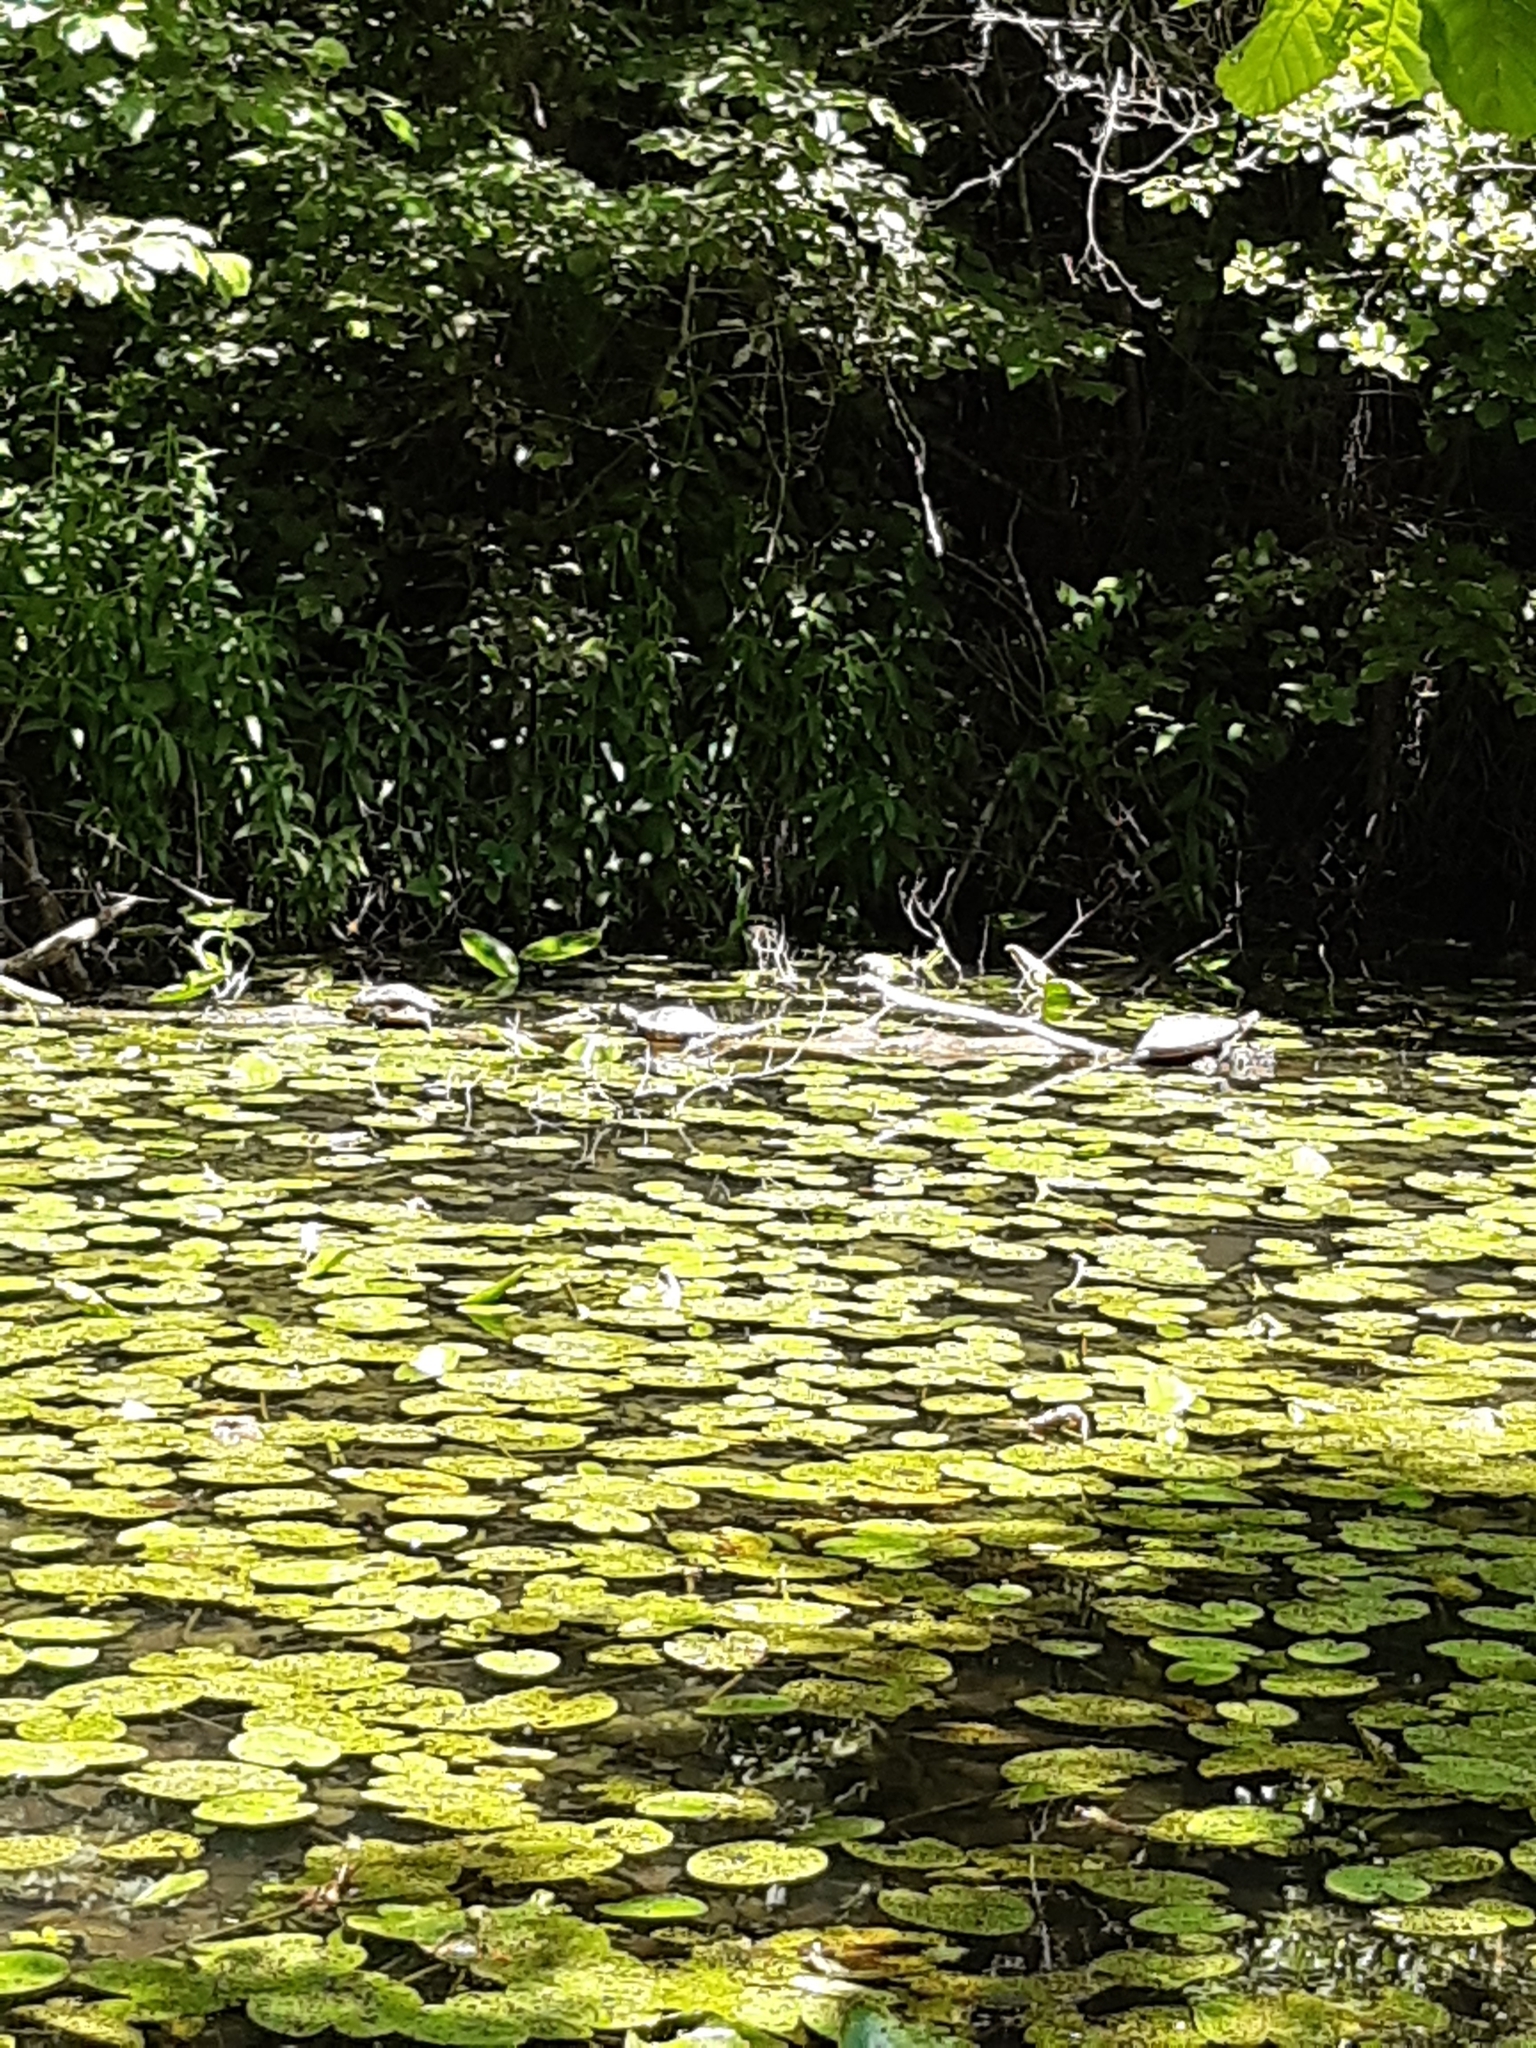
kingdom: Animalia
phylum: Chordata
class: Testudines
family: Emydidae
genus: Trachemys
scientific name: Trachemys scripta
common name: Slider
